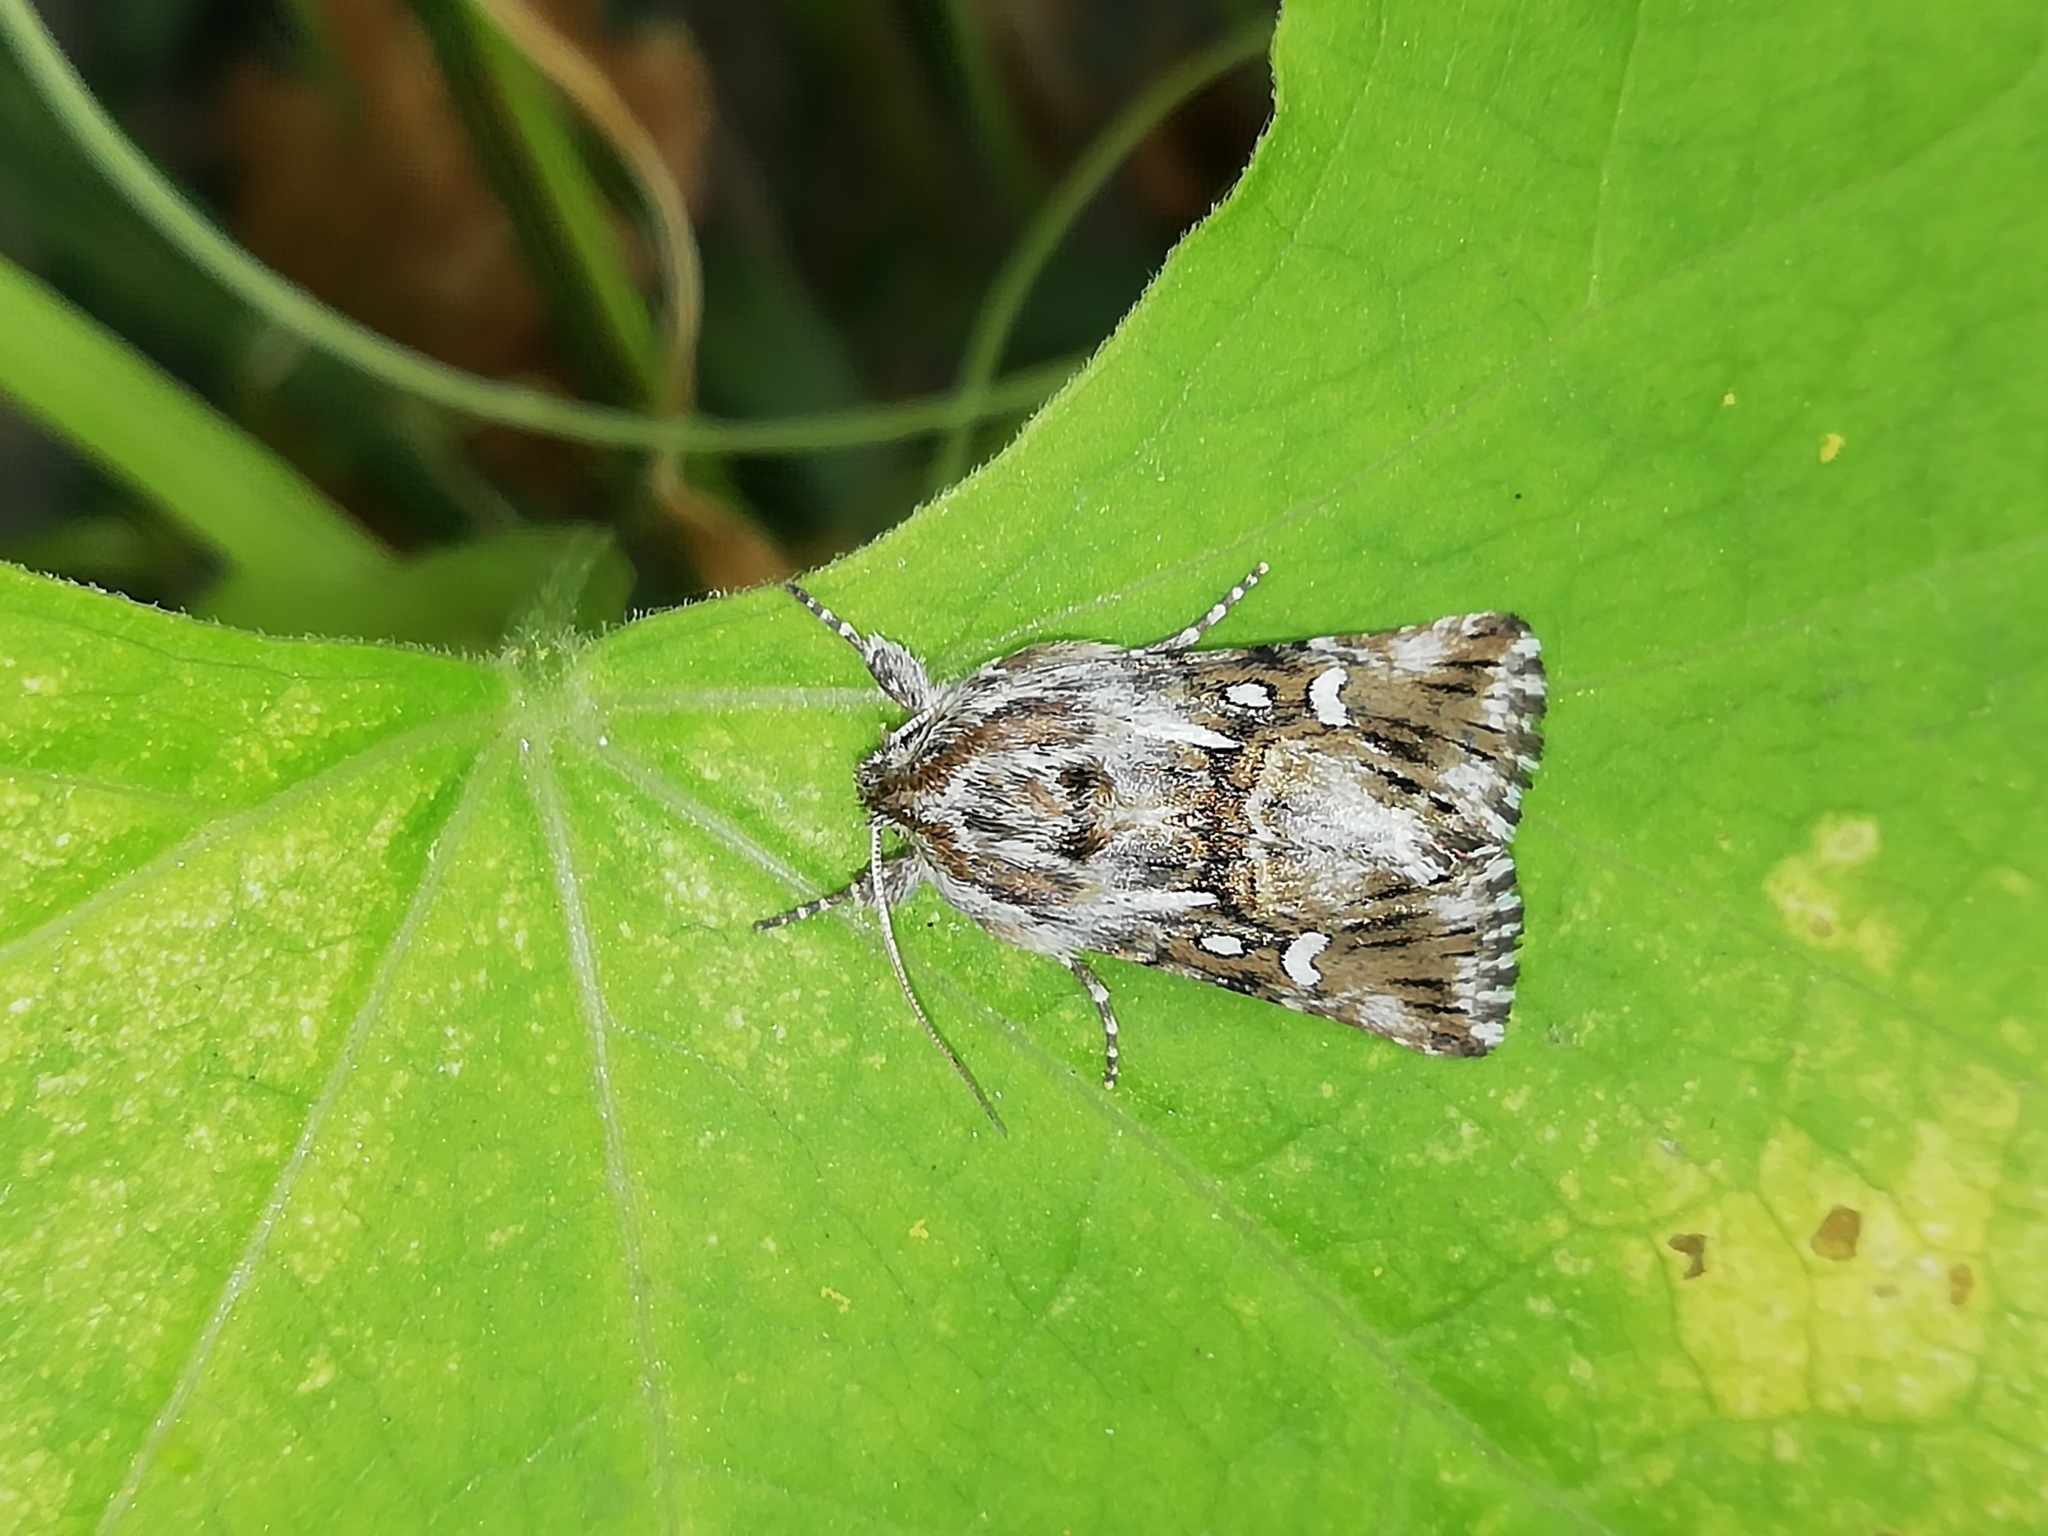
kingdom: Animalia
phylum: Arthropoda
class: Insecta
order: Lepidoptera
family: Noctuidae
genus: Calophasia
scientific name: Calophasia lunula
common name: Toadflax brocade
